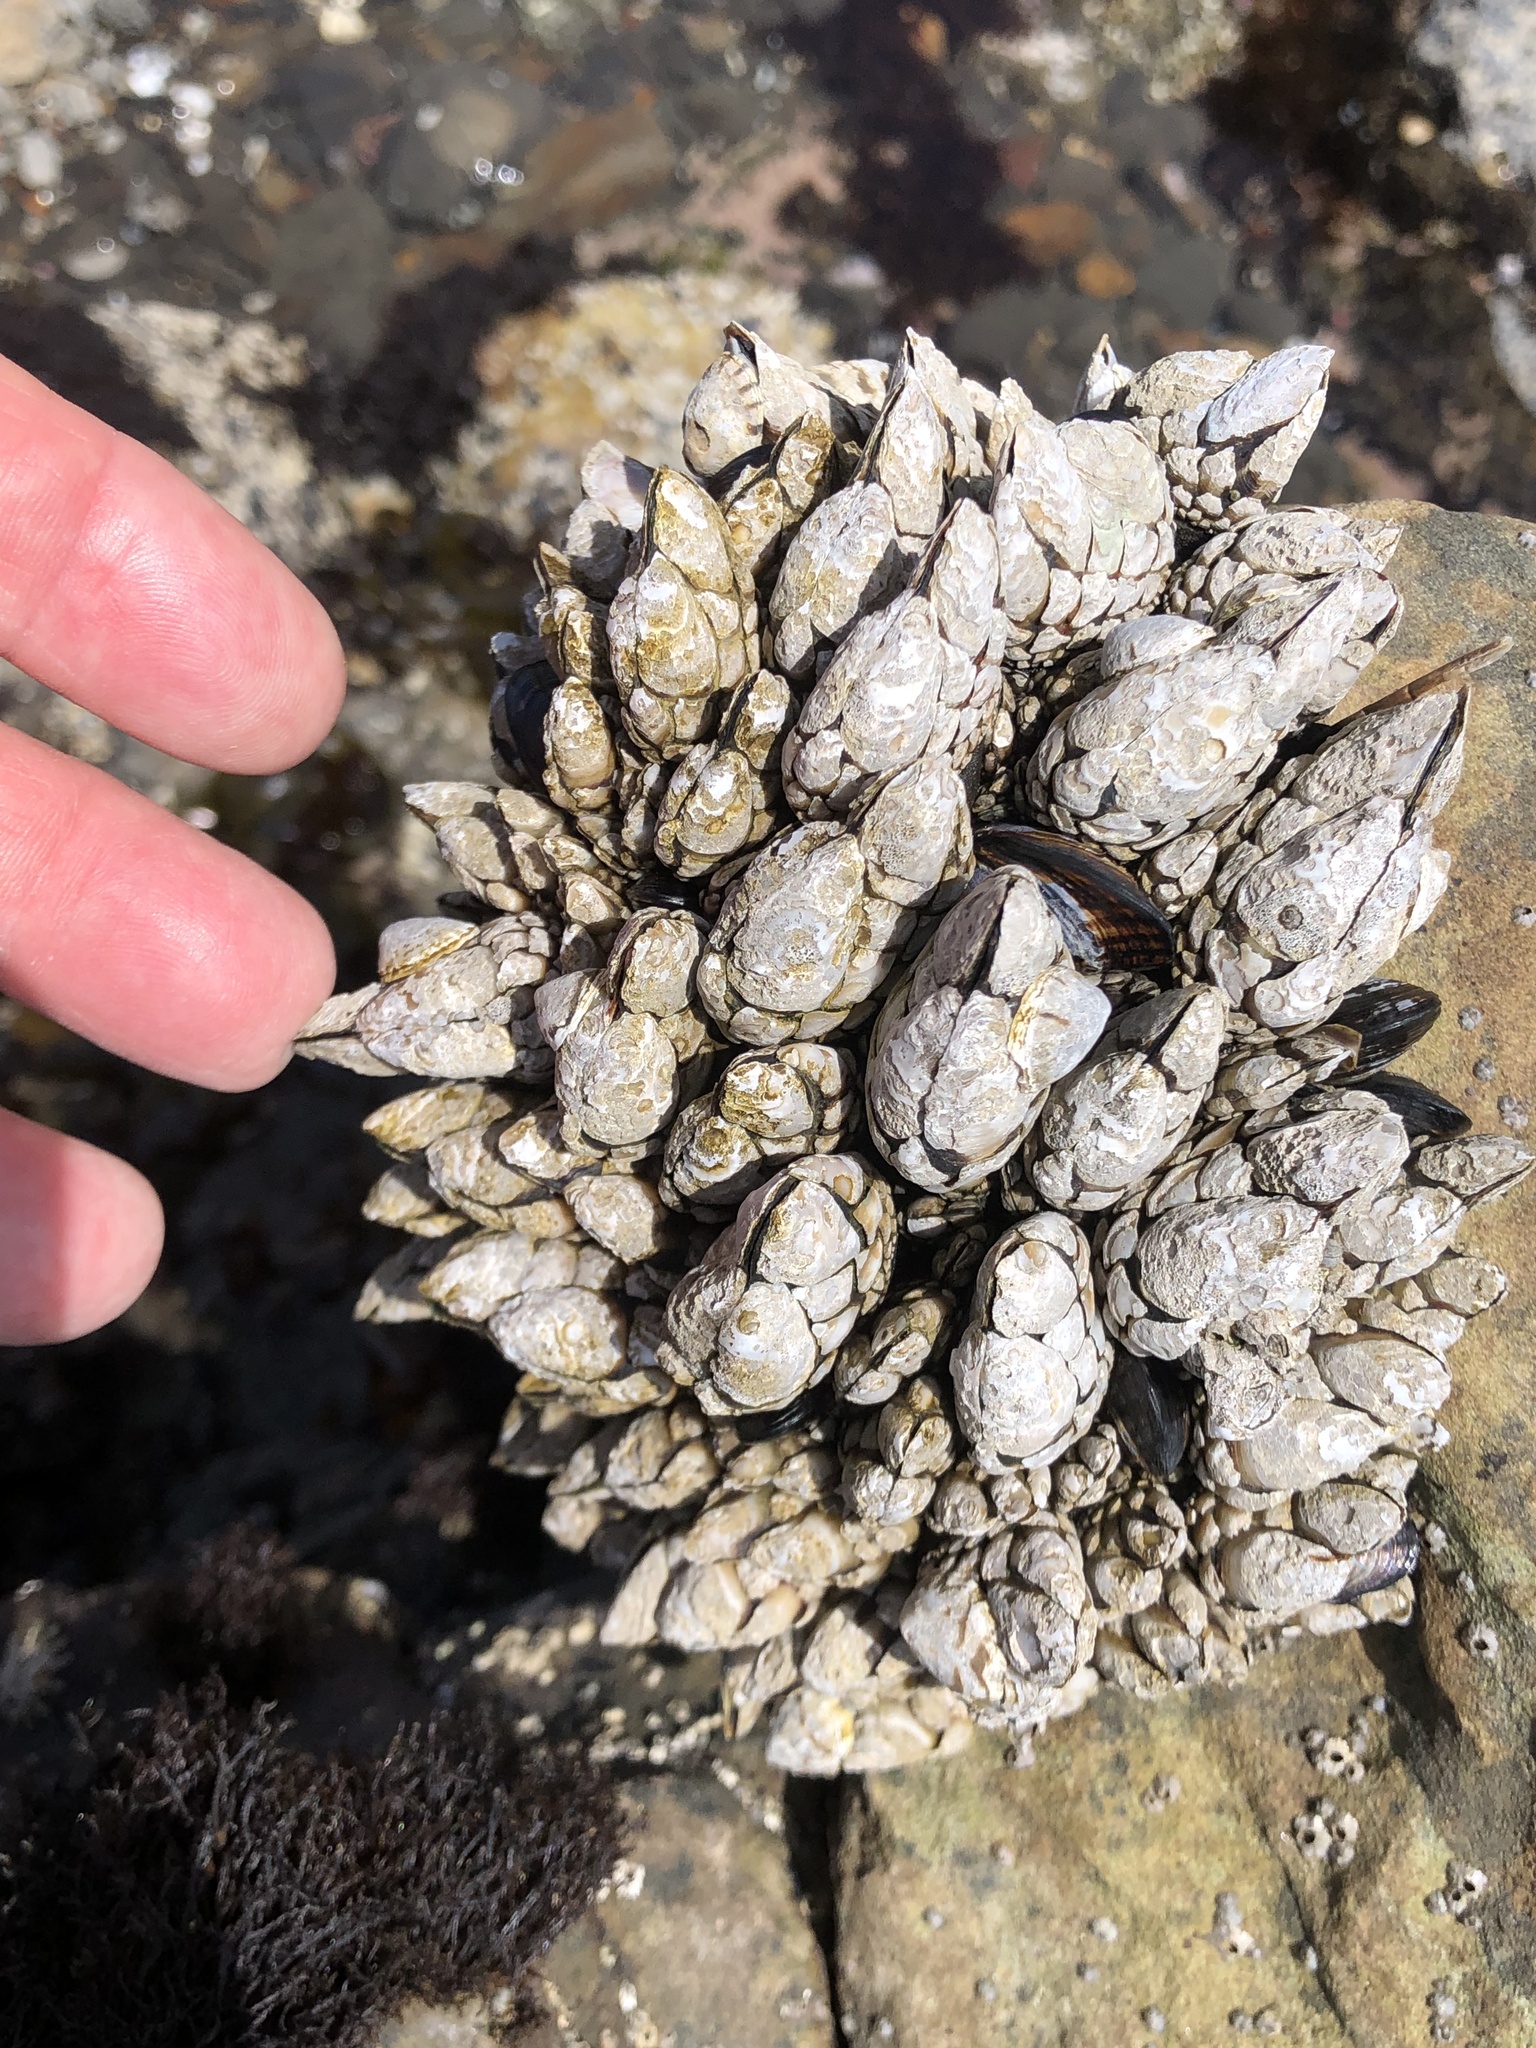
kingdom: Animalia
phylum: Arthropoda
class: Maxillopoda
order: Pedunculata
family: Pollicipedidae
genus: Pollicipes
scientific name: Pollicipes polymerus
